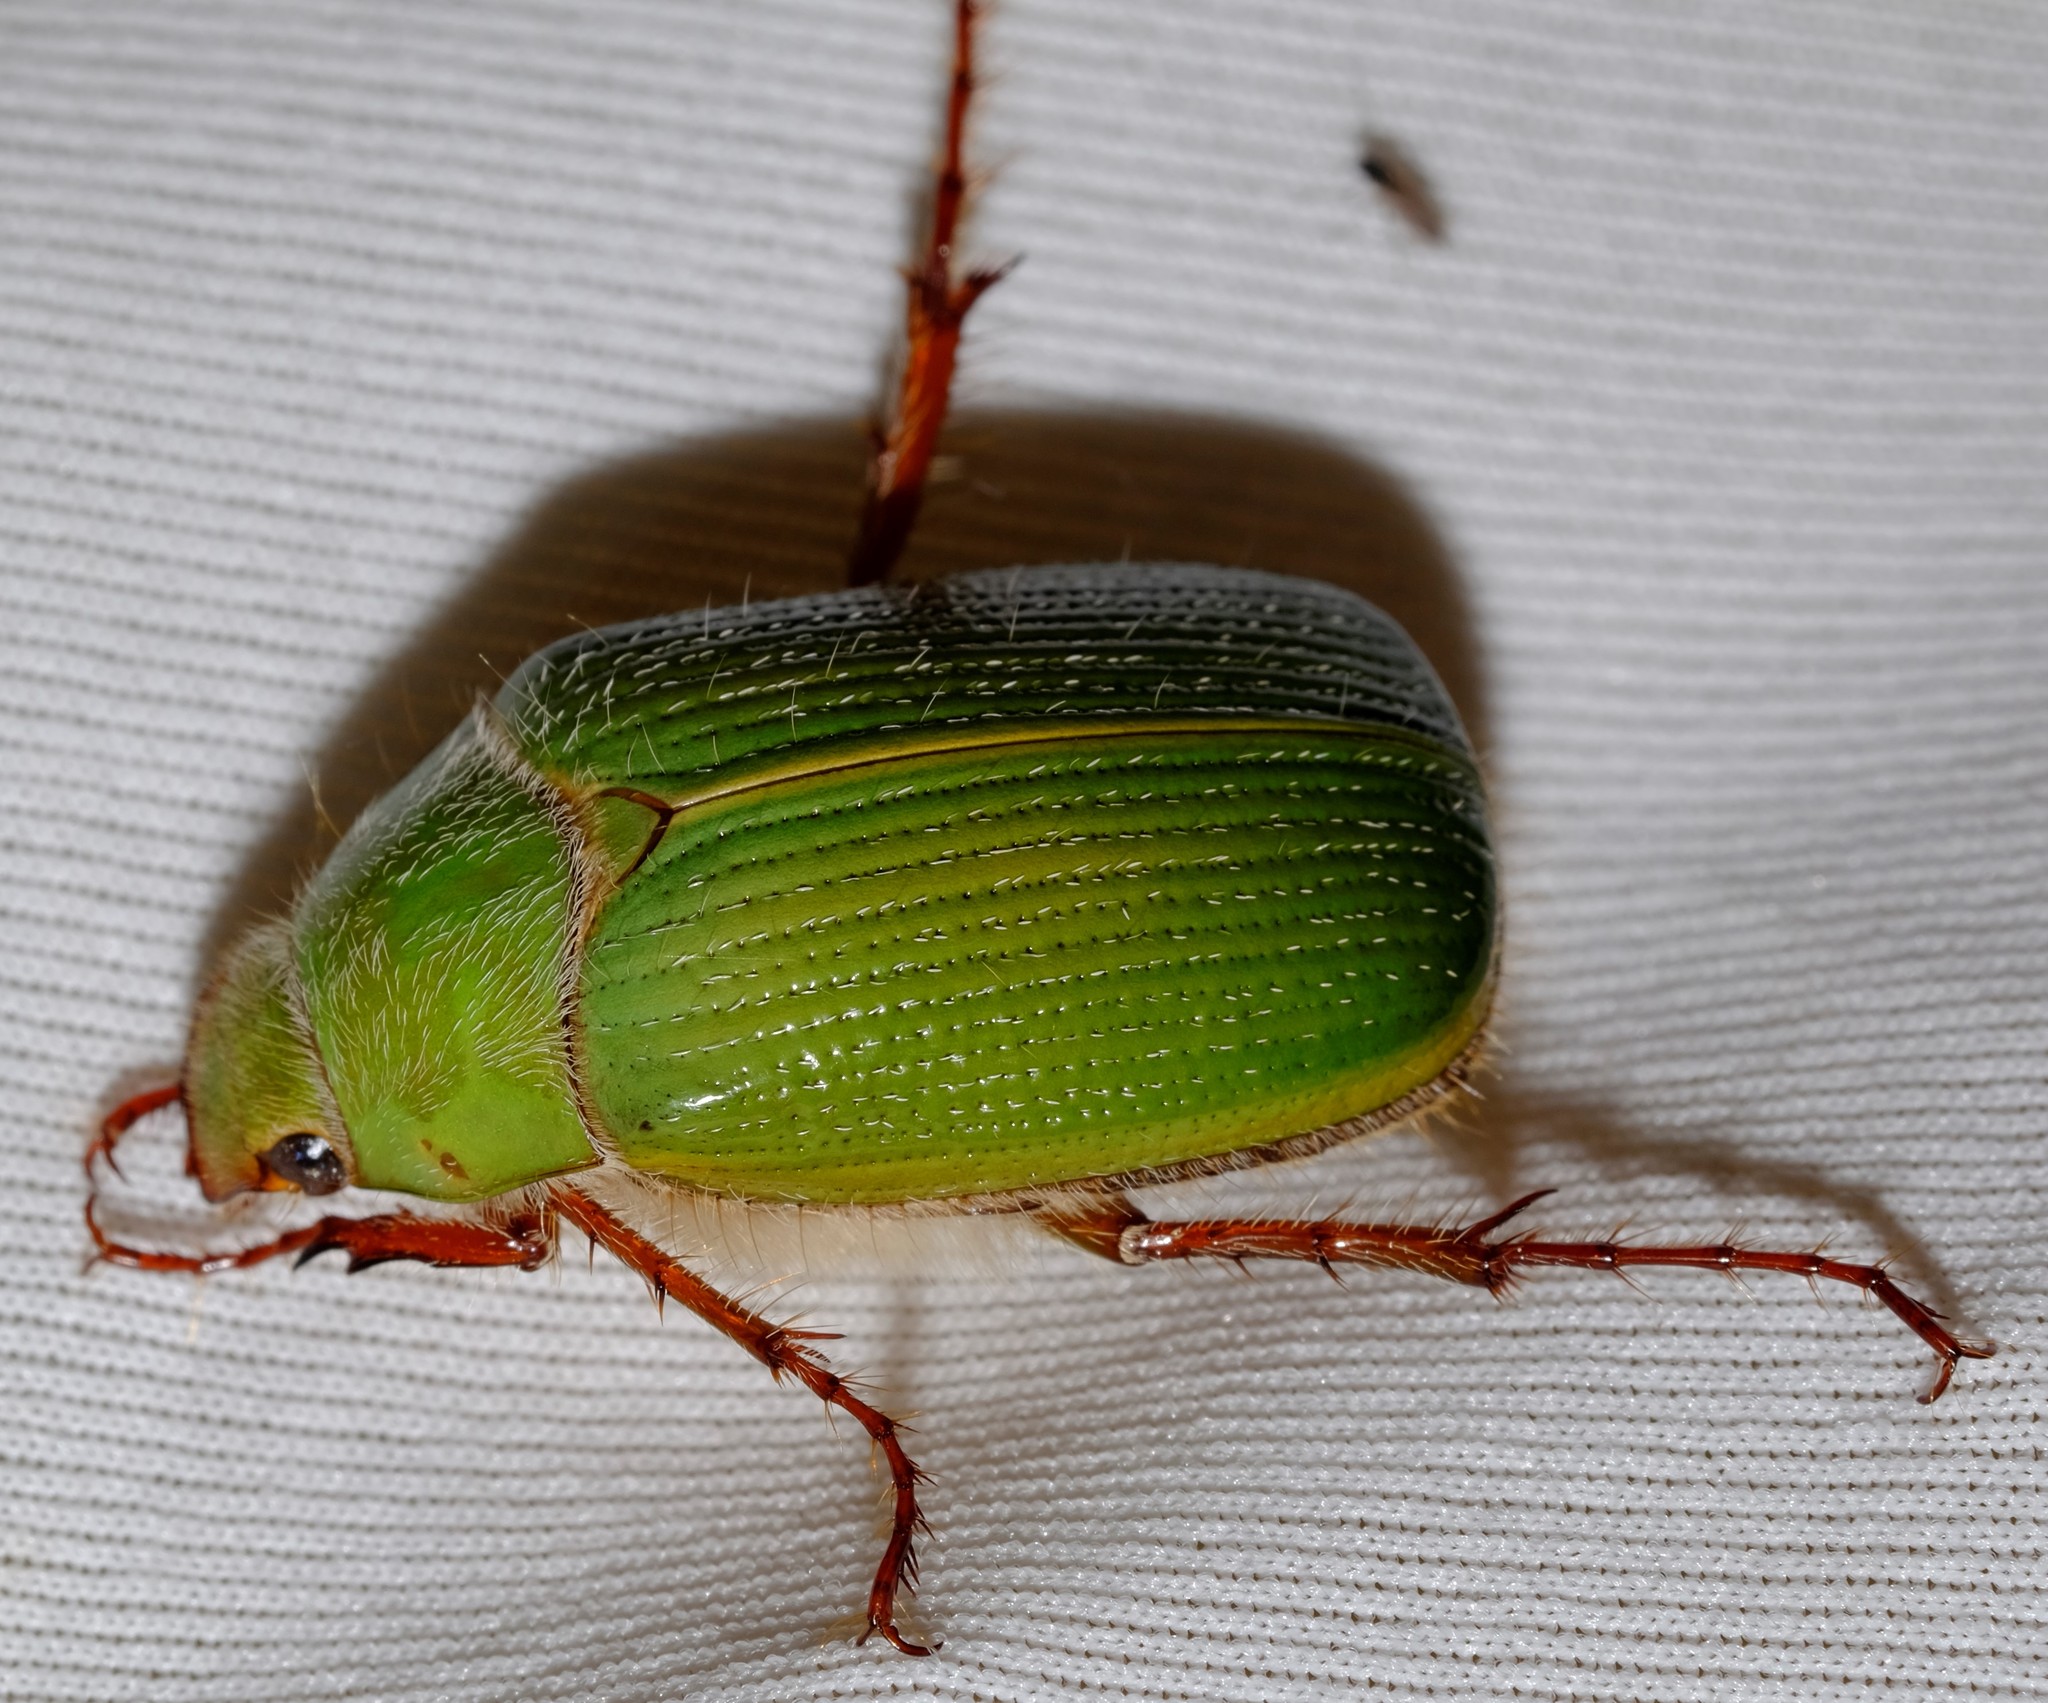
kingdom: Animalia
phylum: Arthropoda
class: Insecta
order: Coleoptera
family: Scarabaeidae
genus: Xylonichus
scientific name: Xylonichus eucalypti
